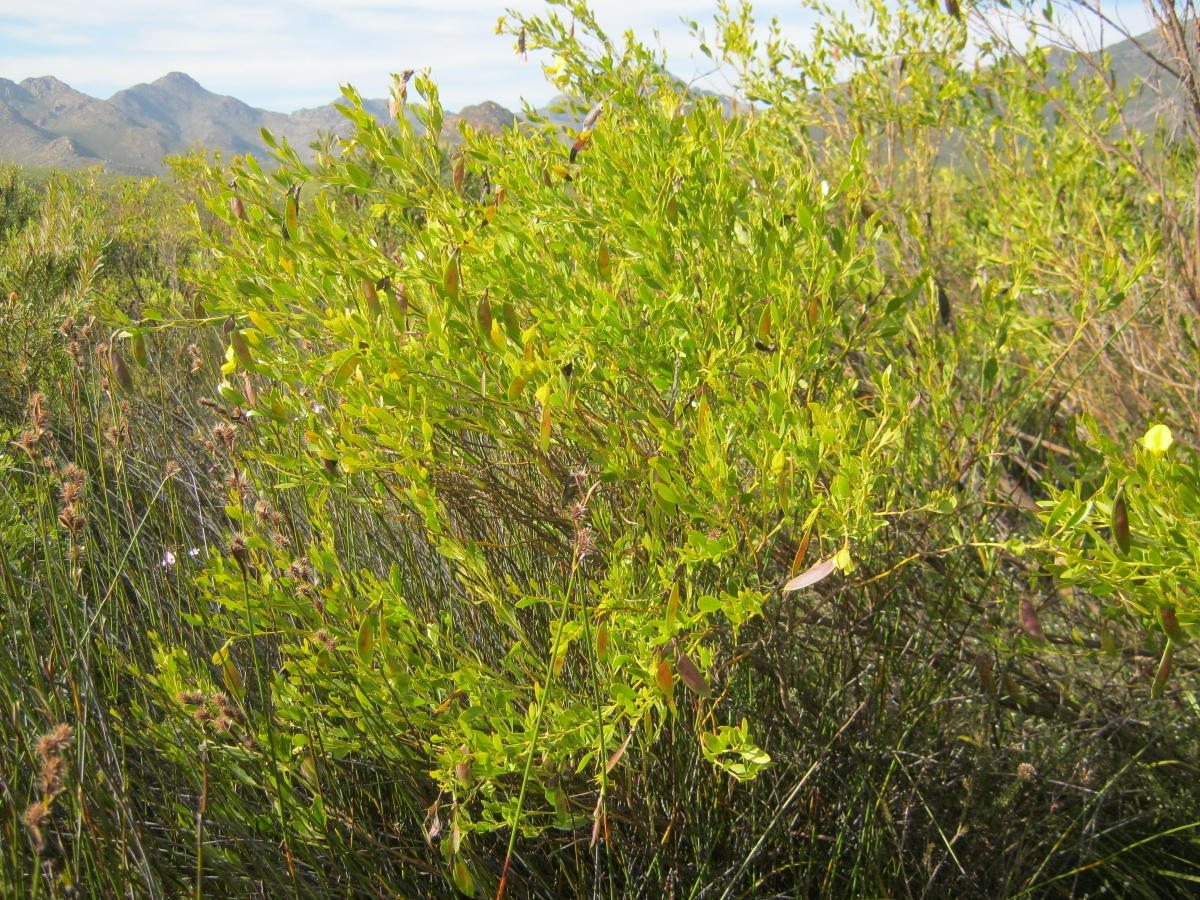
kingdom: Plantae
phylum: Tracheophyta
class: Magnoliopsida
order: Fabales
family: Fabaceae
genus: Rafnia
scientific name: Rafnia vlokii
